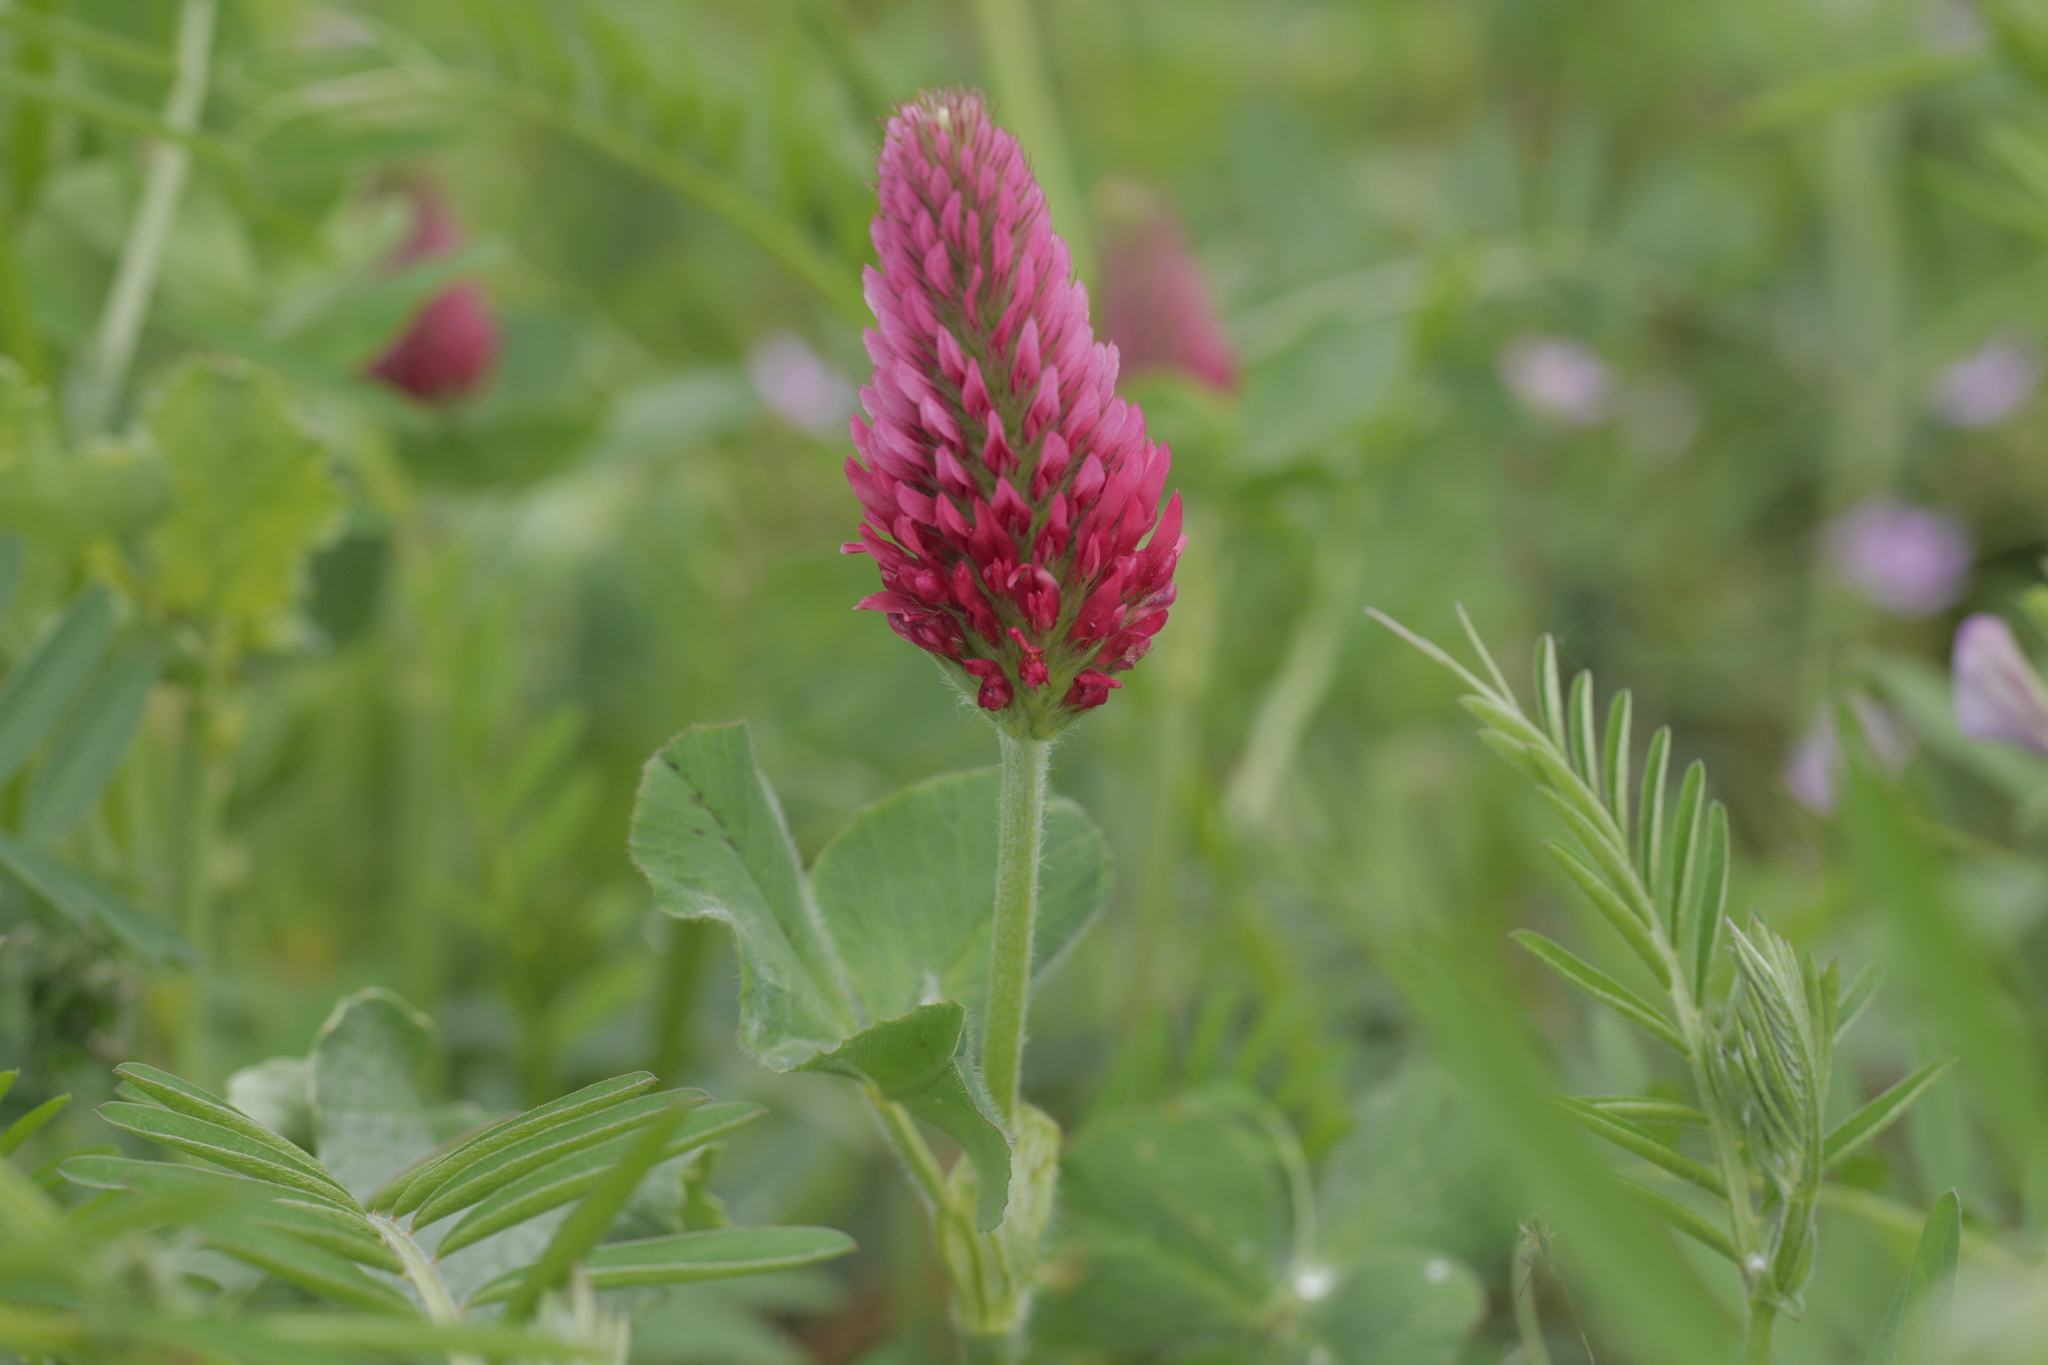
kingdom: Plantae
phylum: Tracheophyta
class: Magnoliopsida
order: Fabales
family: Fabaceae
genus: Trifolium
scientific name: Trifolium incarnatum
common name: Crimson clover
